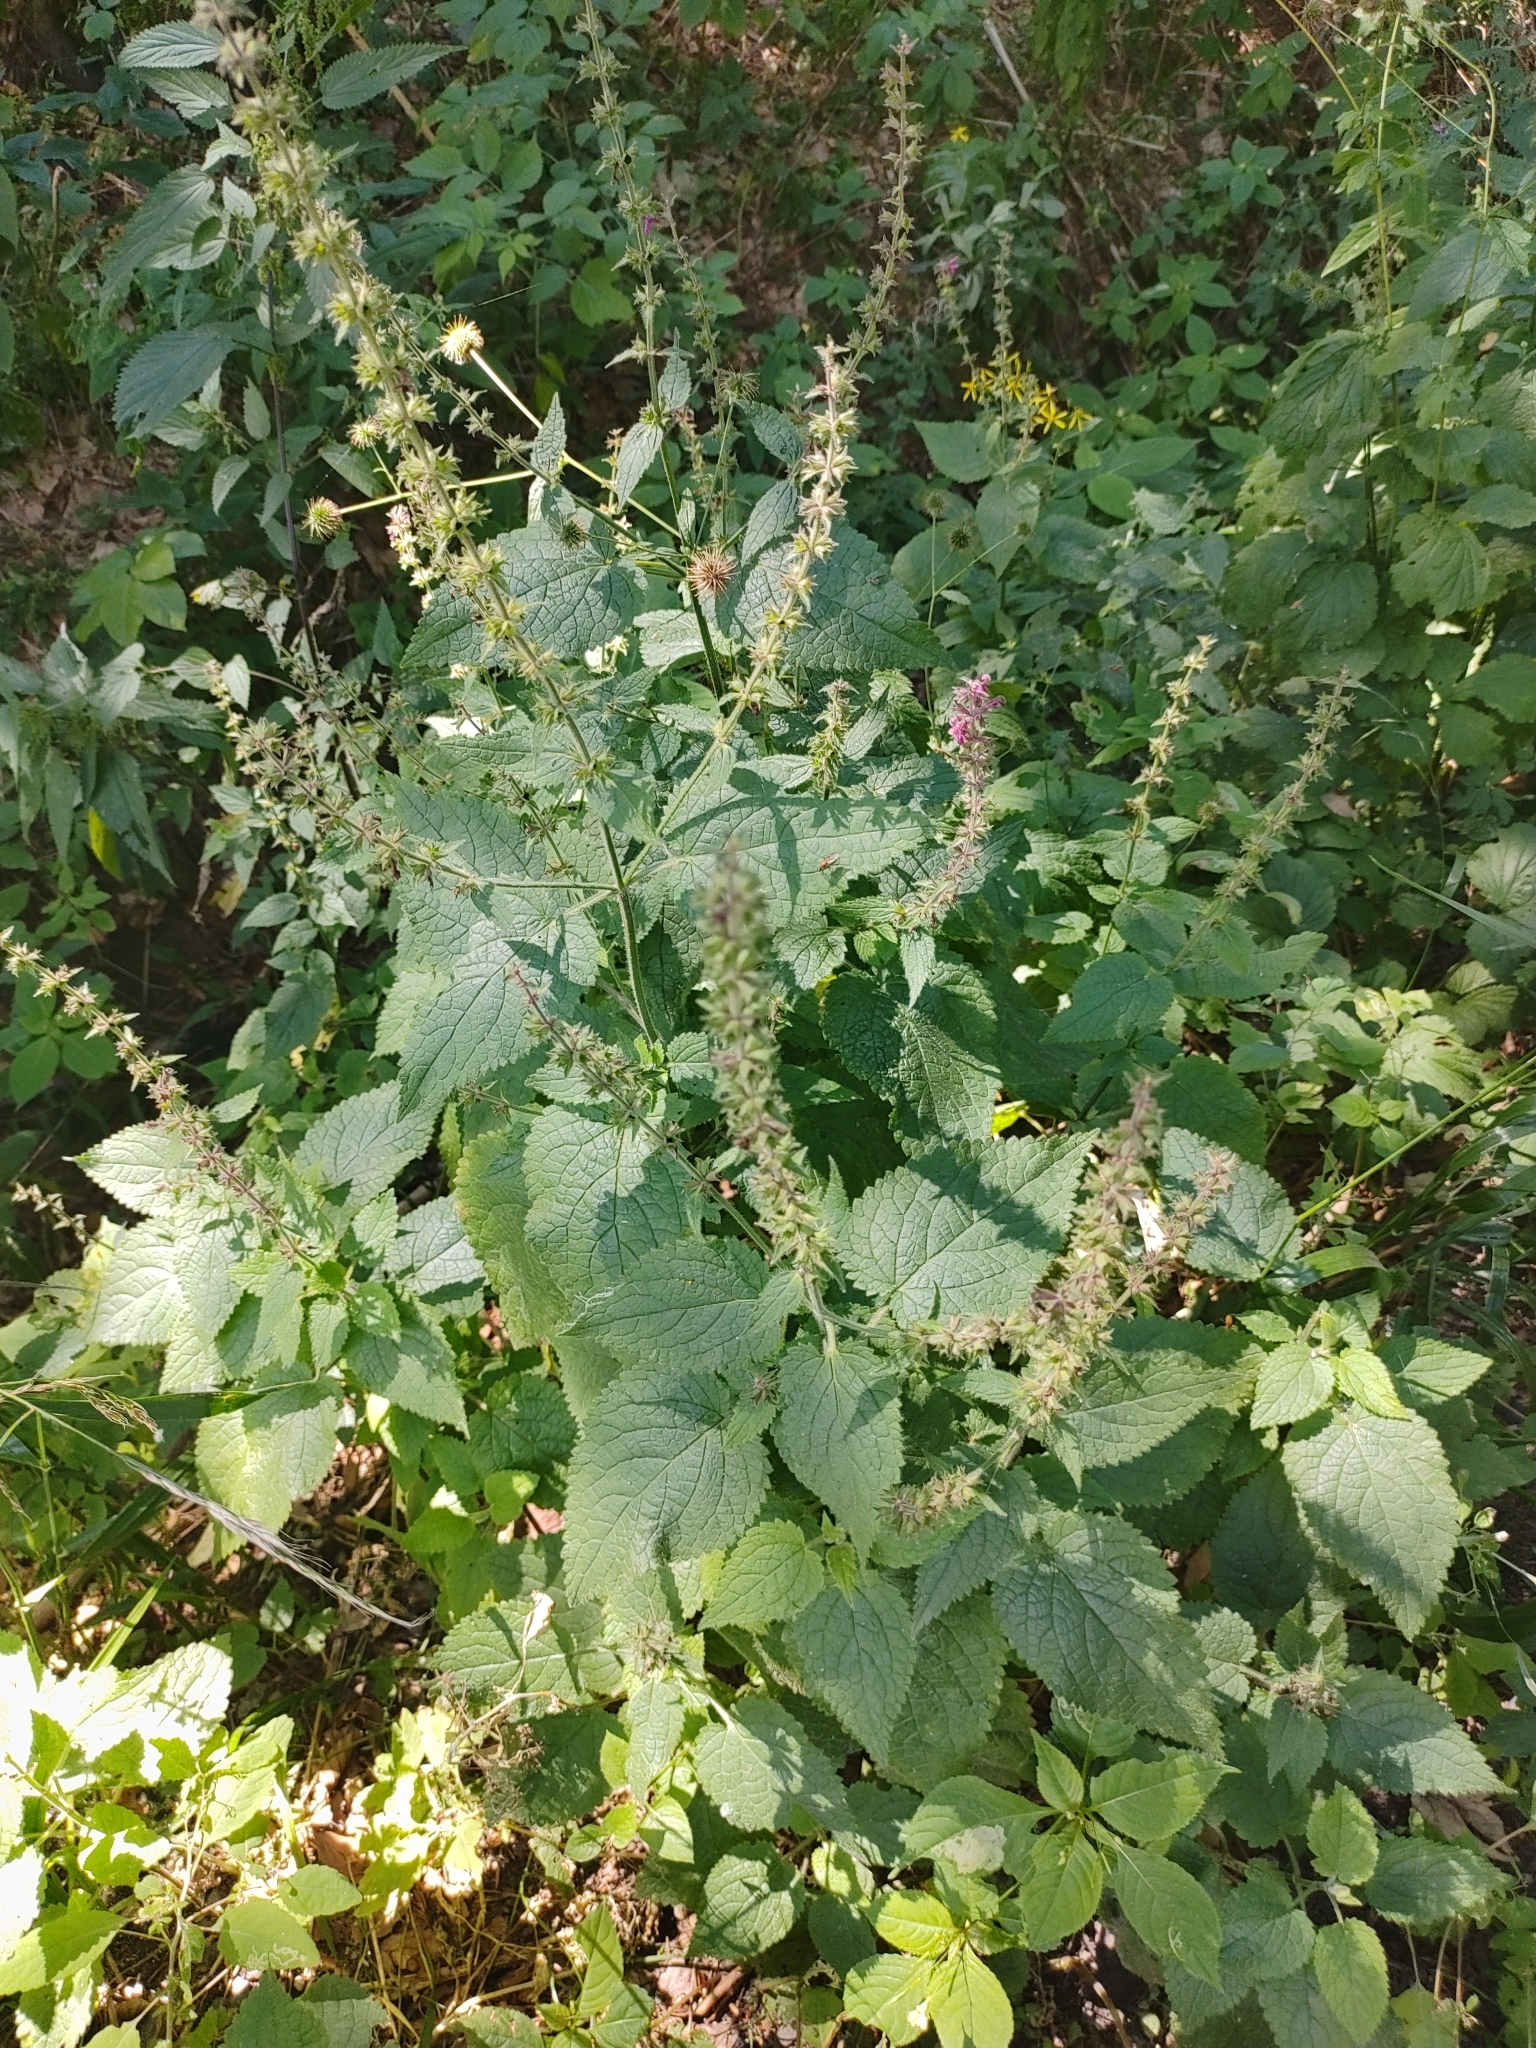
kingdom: Plantae
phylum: Tracheophyta
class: Magnoliopsida
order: Lamiales
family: Lamiaceae
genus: Stachys
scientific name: Stachys sylvatica
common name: Hedge woundwort
